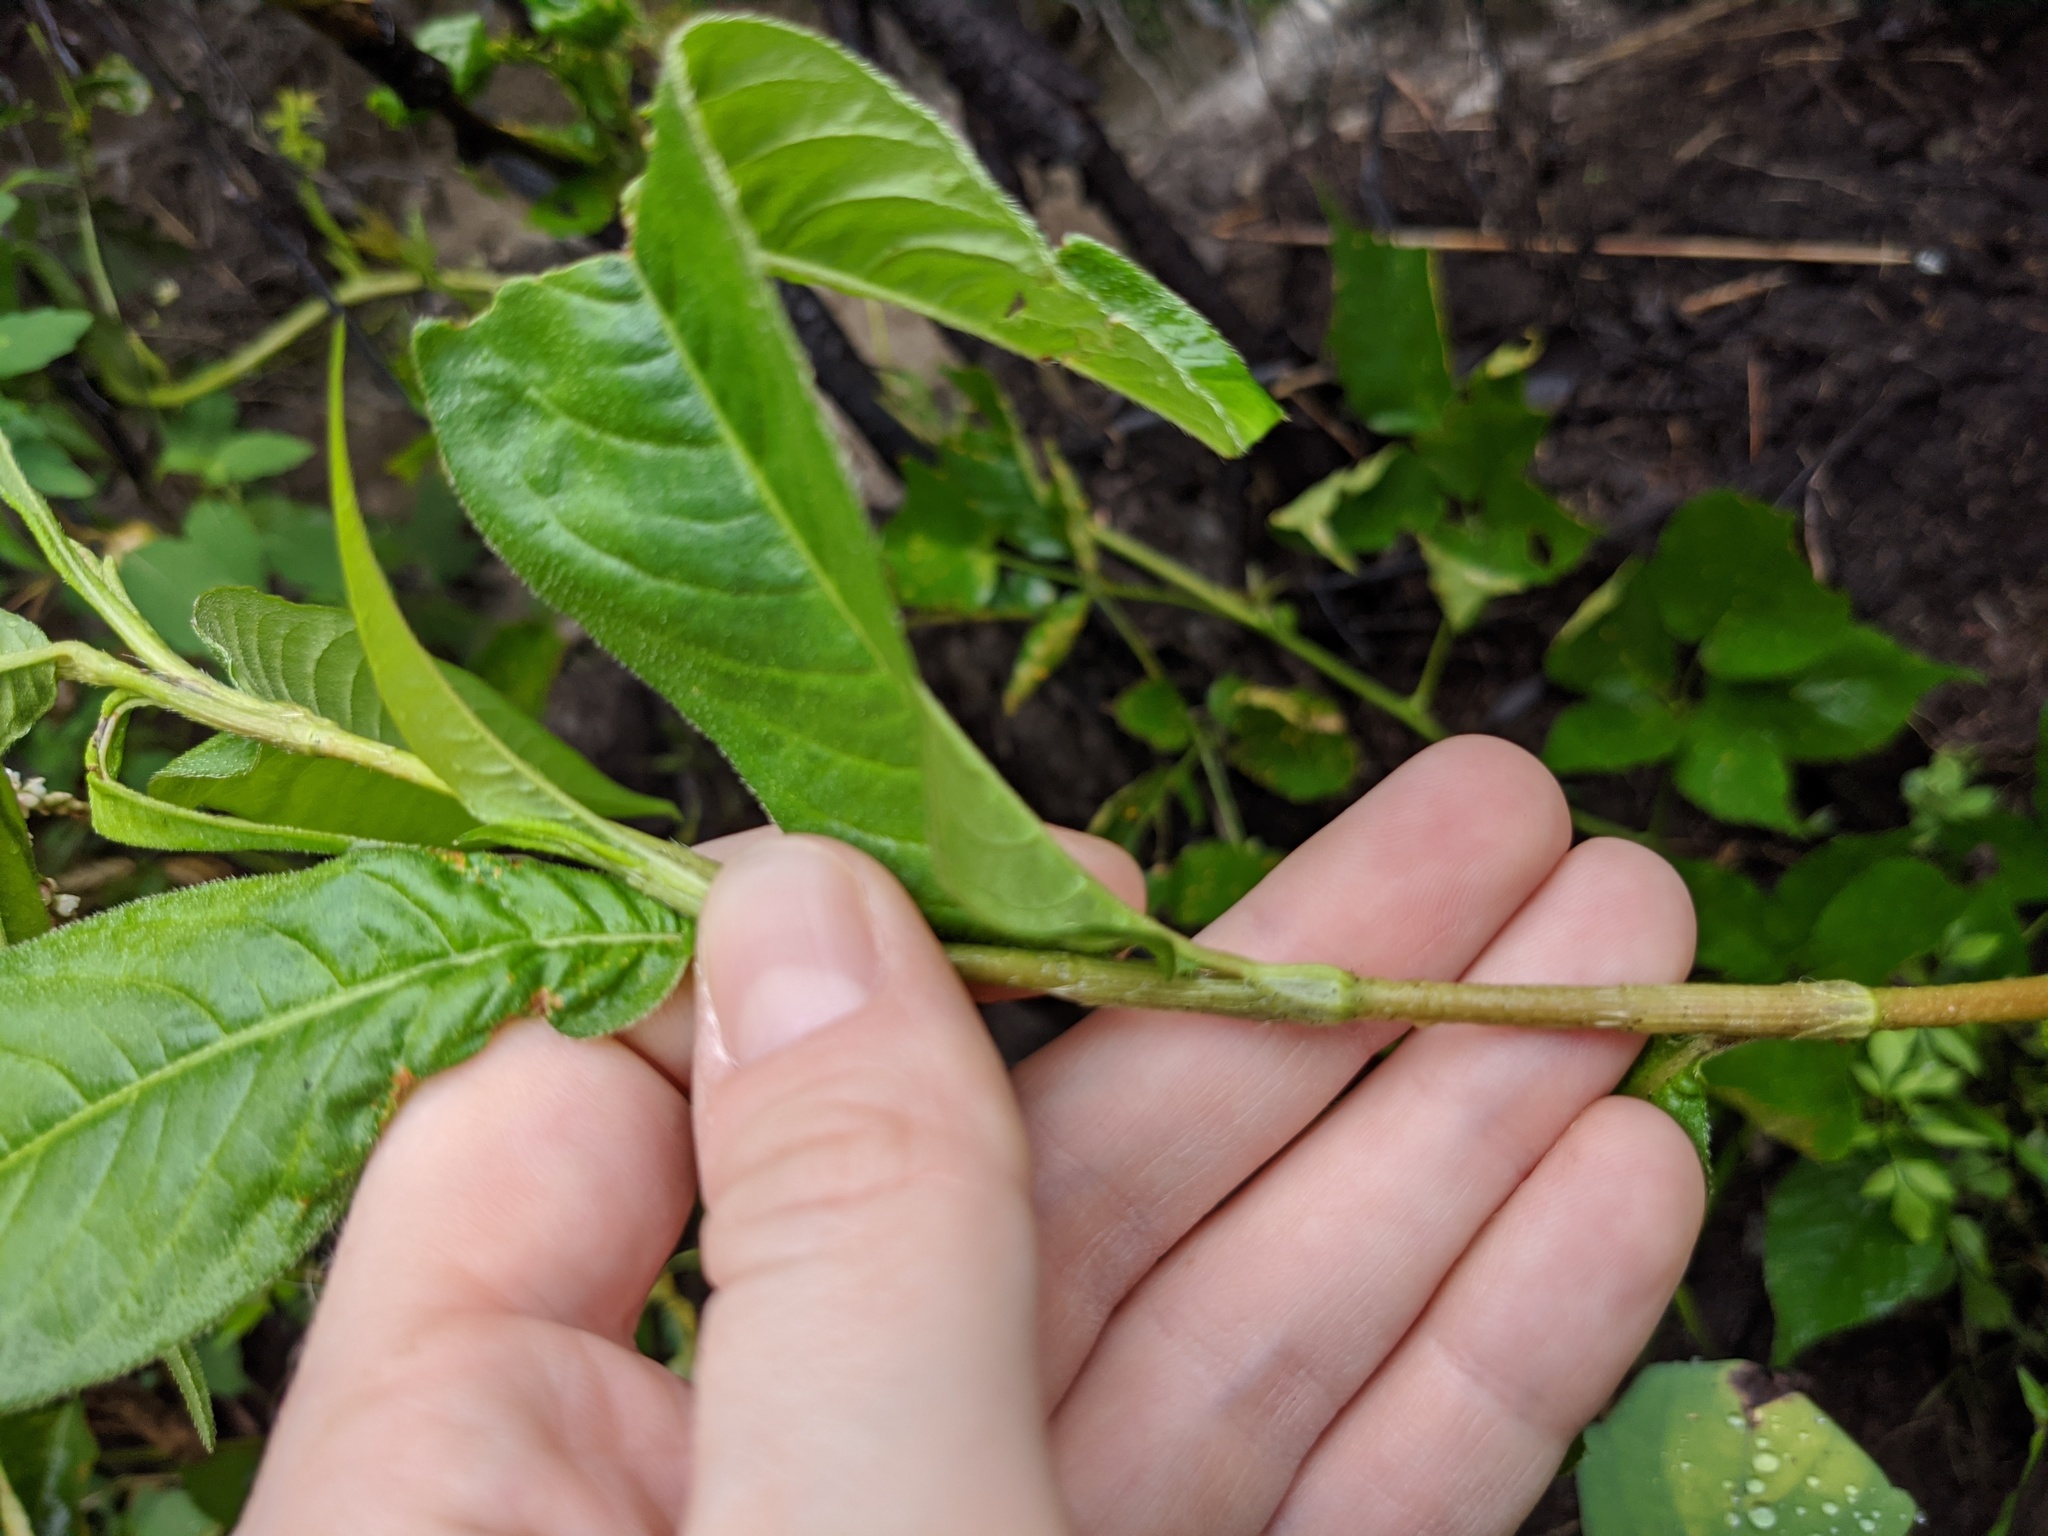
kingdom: Plantae
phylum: Tracheophyta
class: Magnoliopsida
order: Caryophyllales
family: Polygonaceae
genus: Persicaria
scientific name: Persicaria extremiorientalis
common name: Far-eastern smartweed
